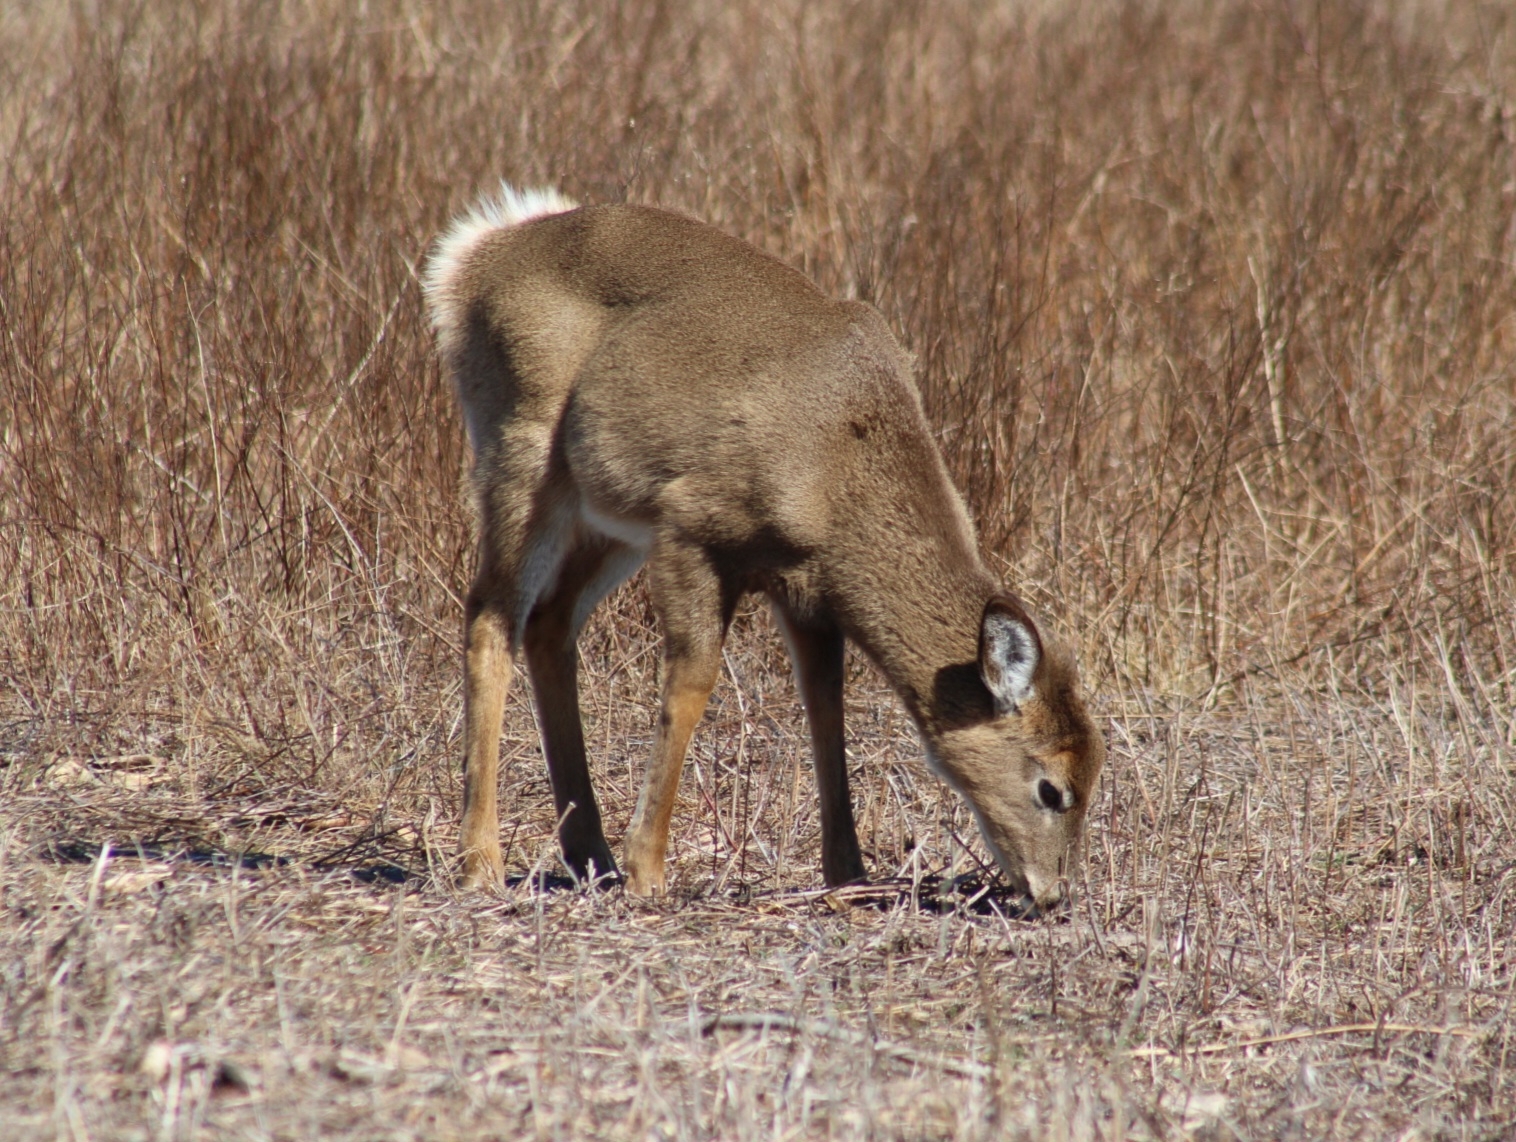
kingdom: Animalia
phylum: Chordata
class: Mammalia
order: Artiodactyla
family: Cervidae
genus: Odocoileus
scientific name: Odocoileus virginianus
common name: White-tailed deer
